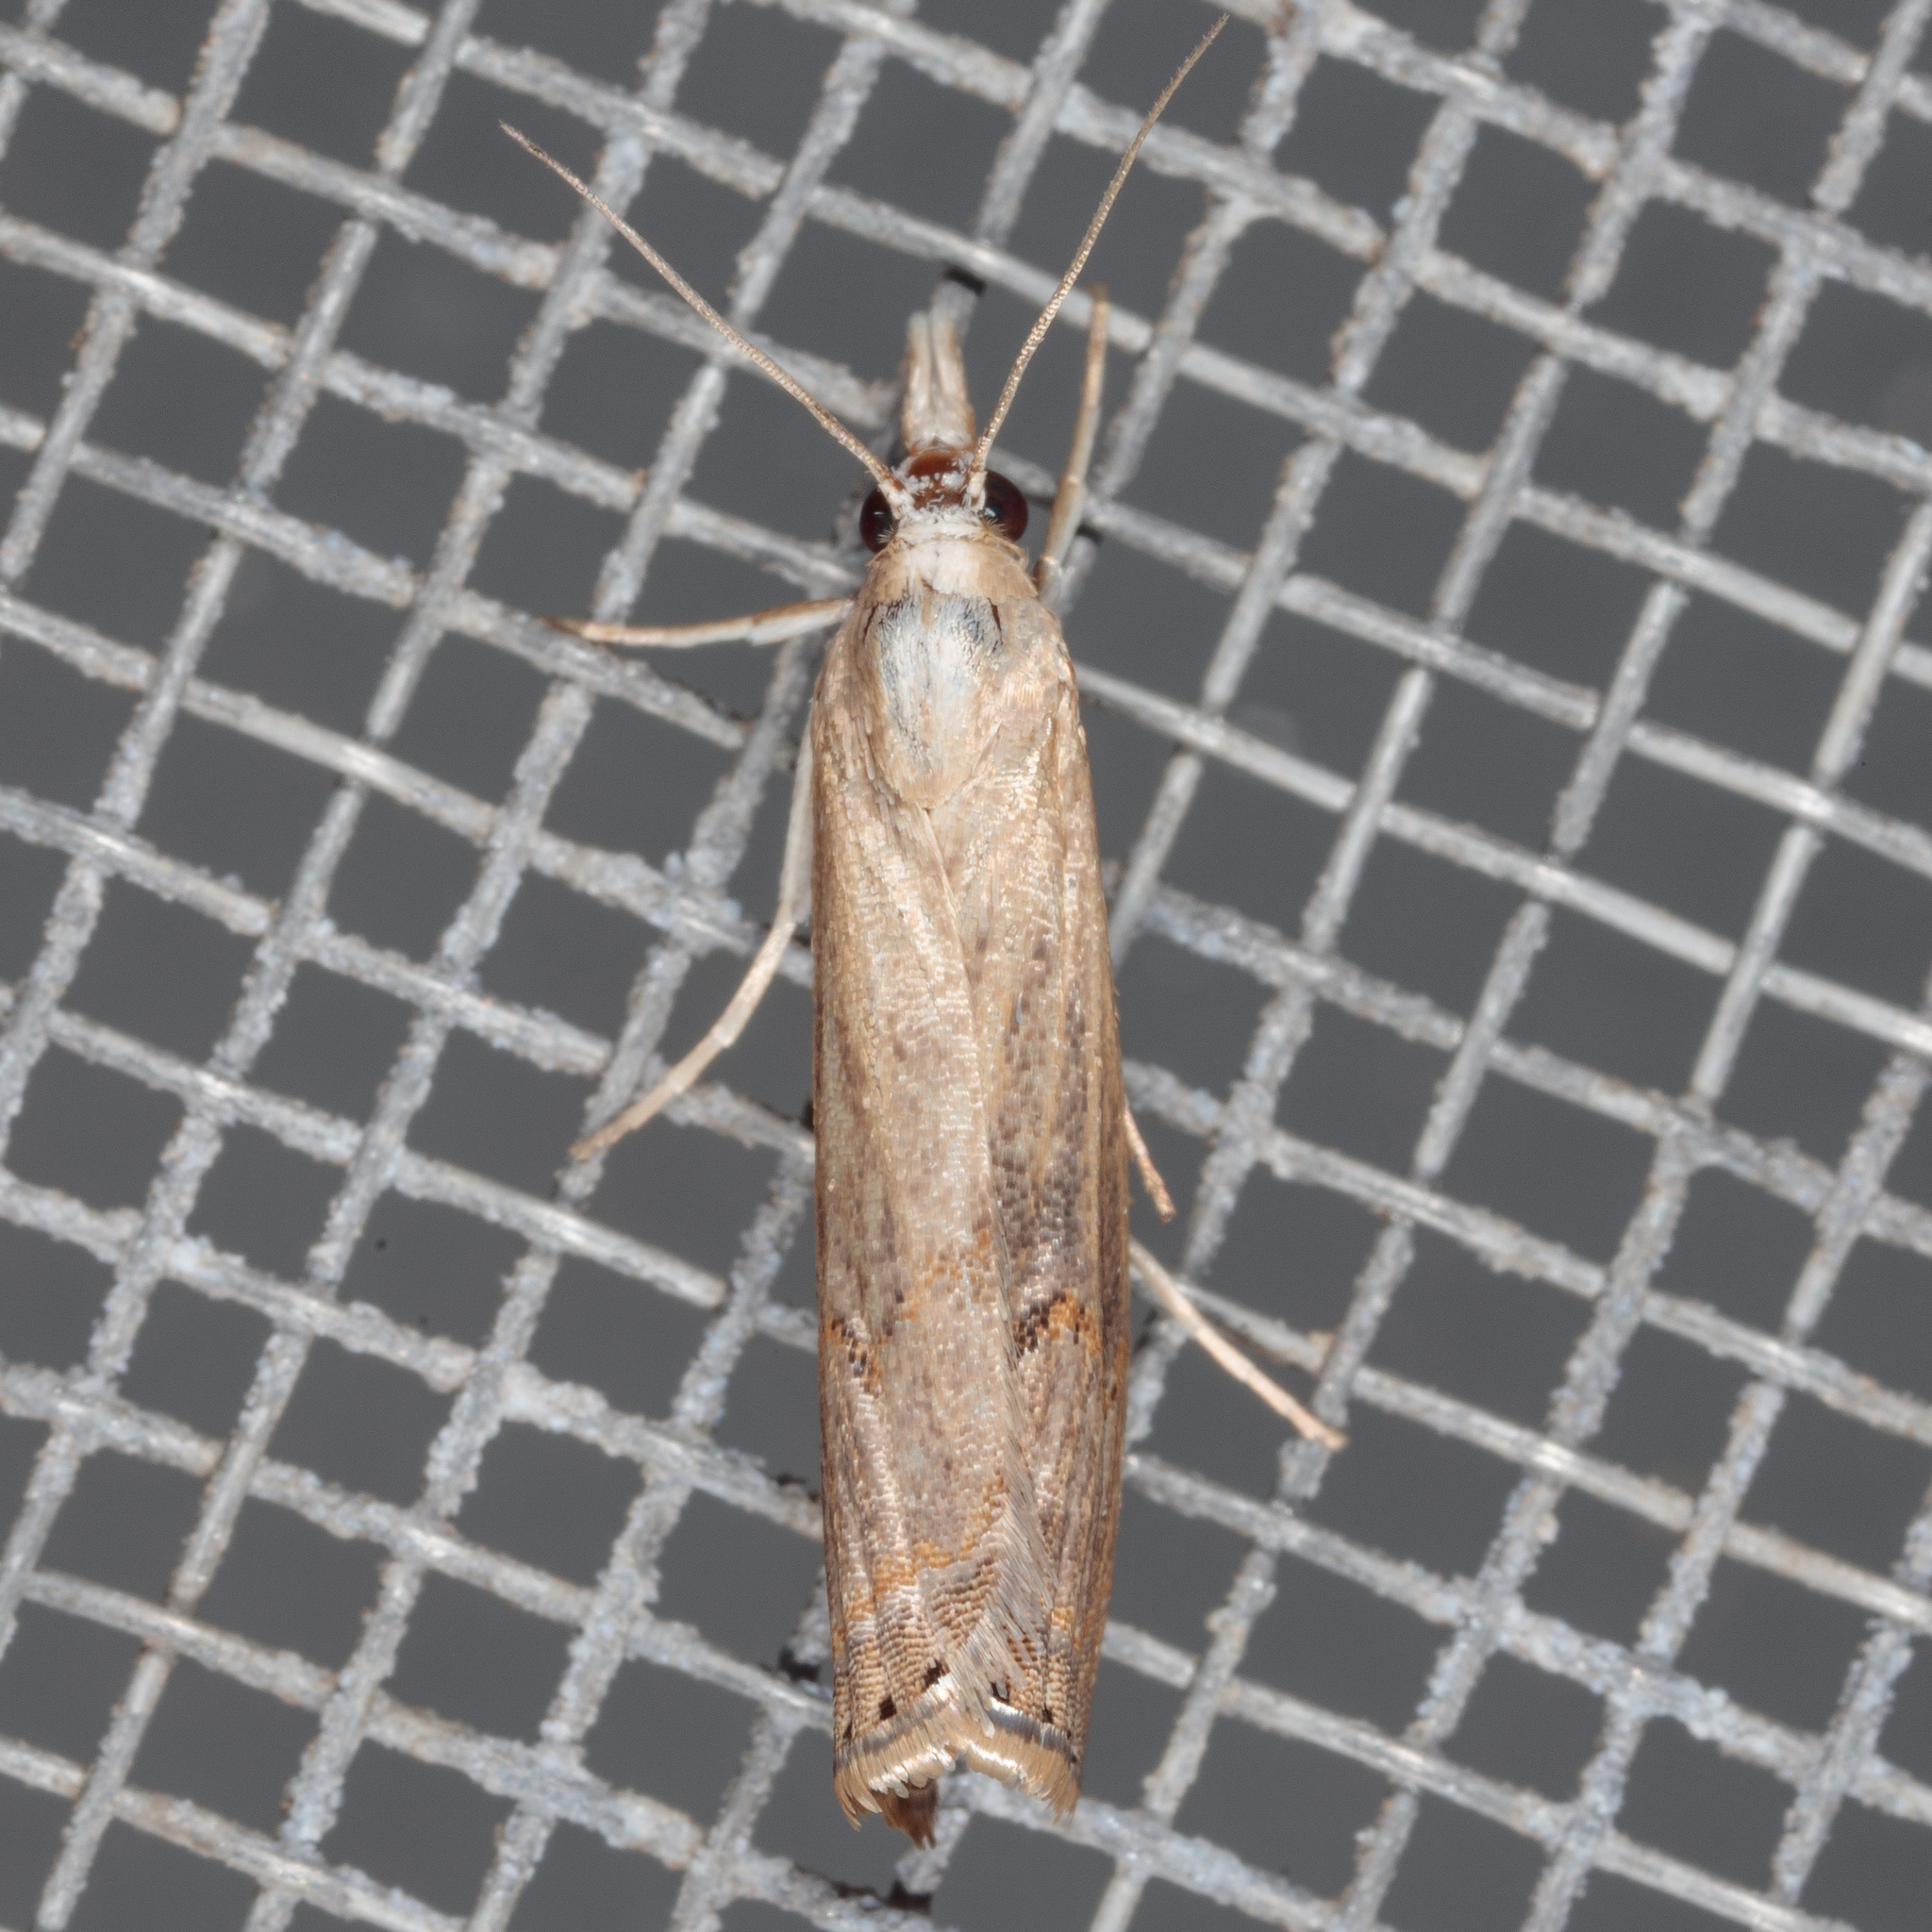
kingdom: Animalia
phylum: Arthropoda
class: Insecta
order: Lepidoptera
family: Crambidae
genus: Parapediasia
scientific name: Parapediasia teterellus
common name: Bluegrass webworm moth
